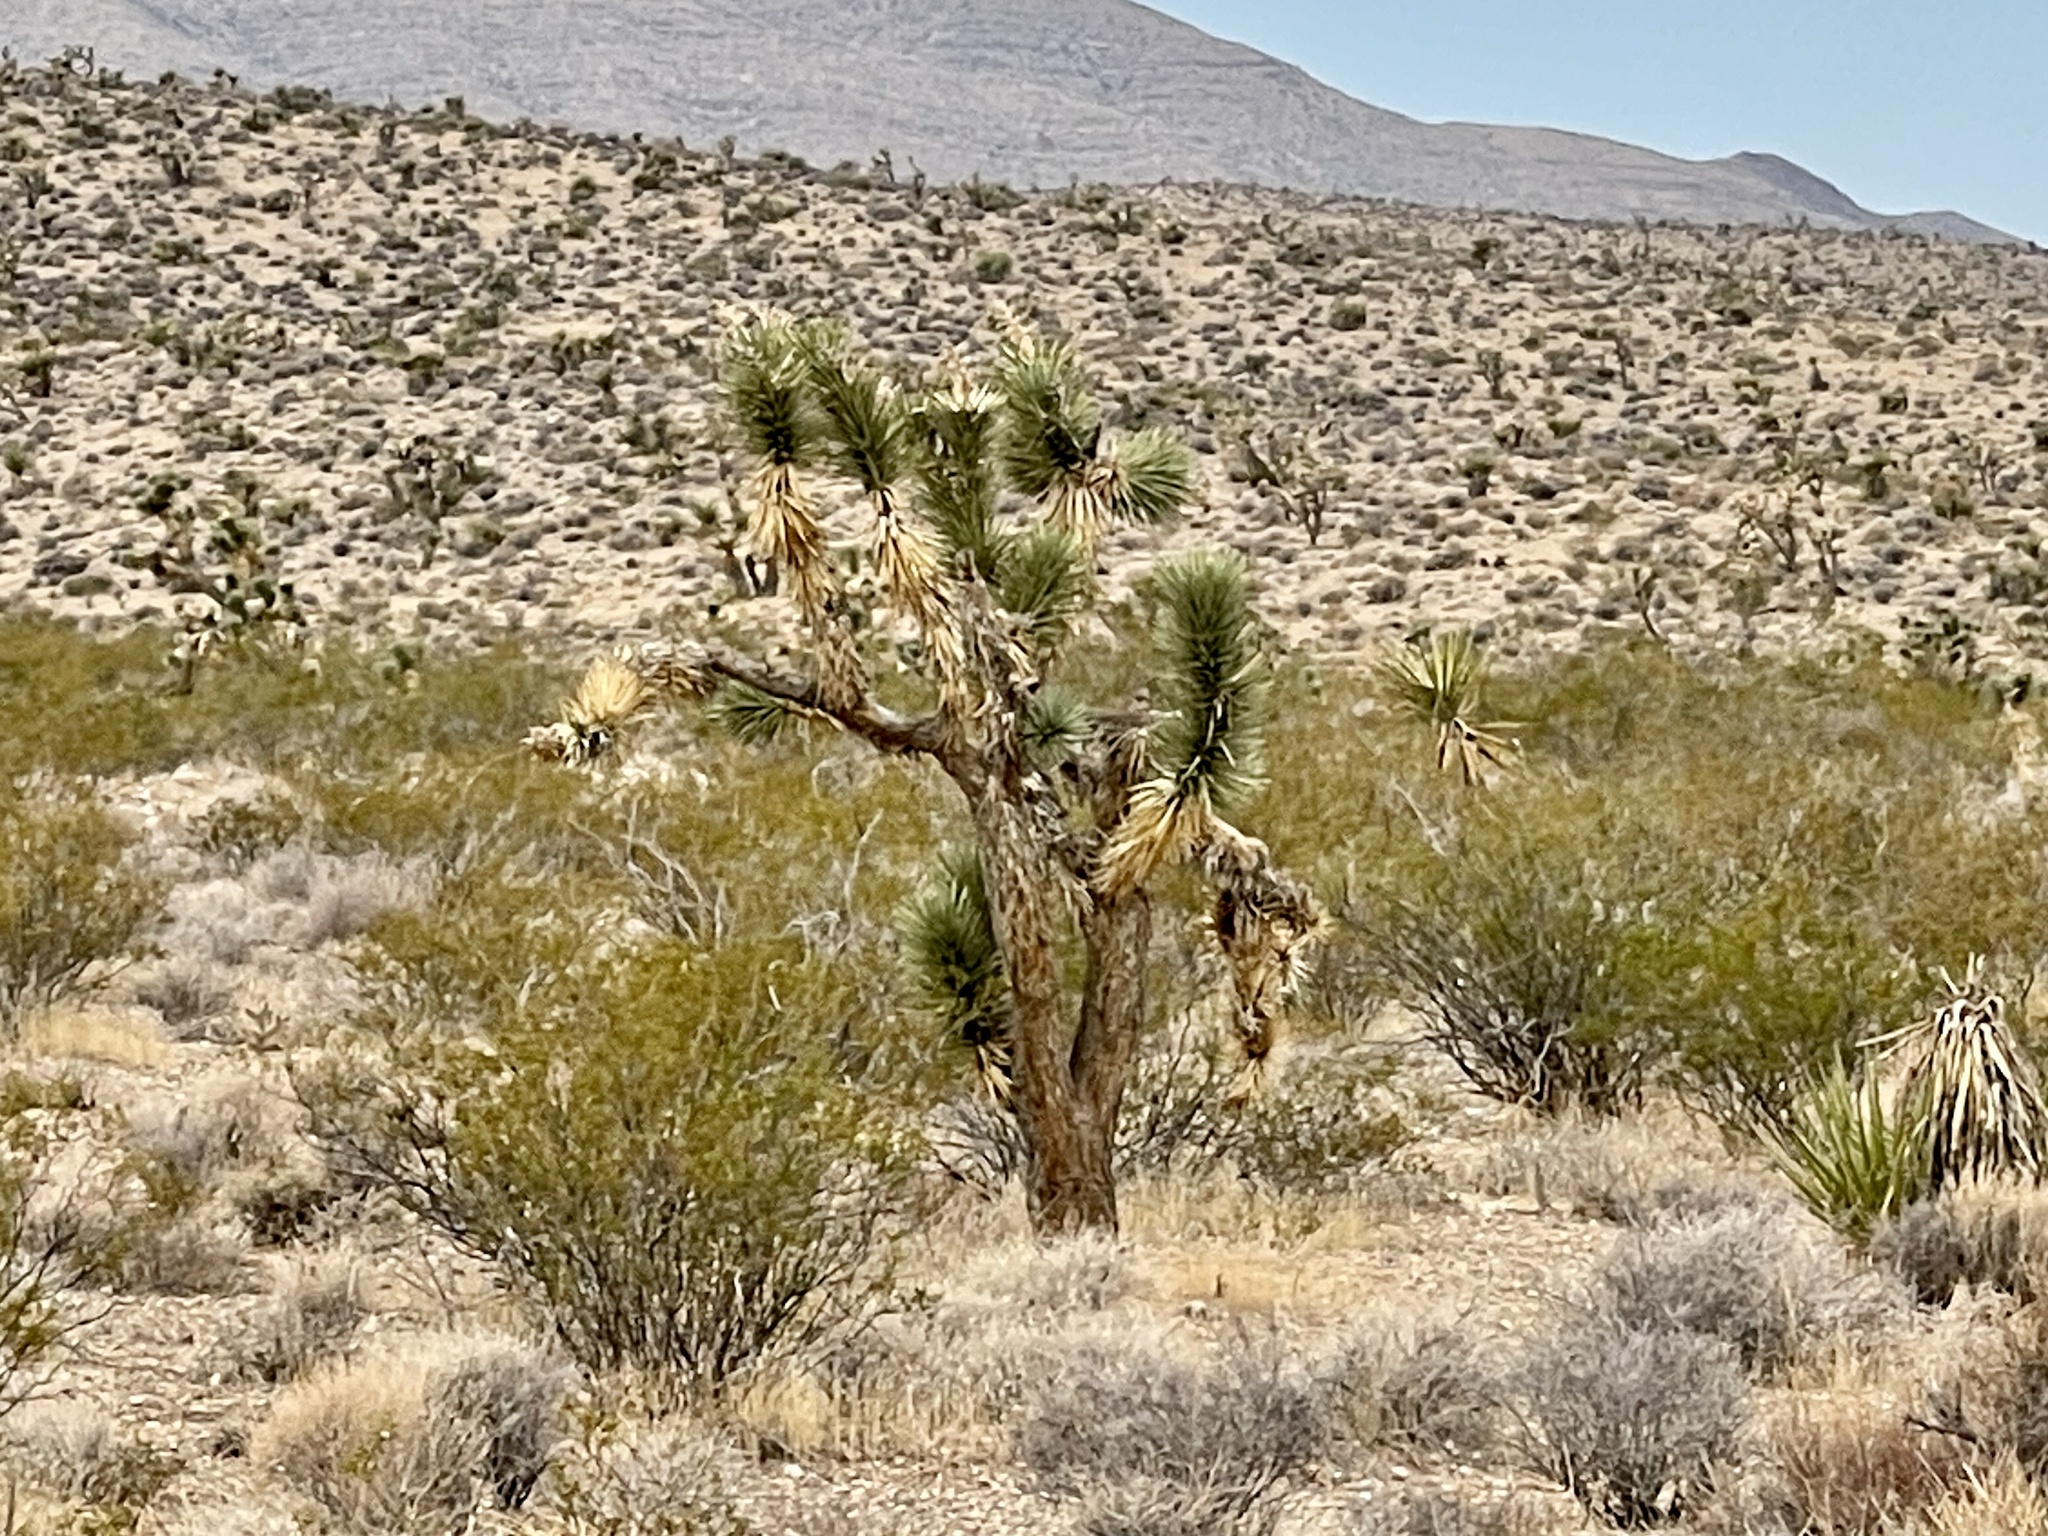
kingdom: Plantae
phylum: Tracheophyta
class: Liliopsida
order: Asparagales
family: Asparagaceae
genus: Yucca
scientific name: Yucca brevifolia
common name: Joshua tree
